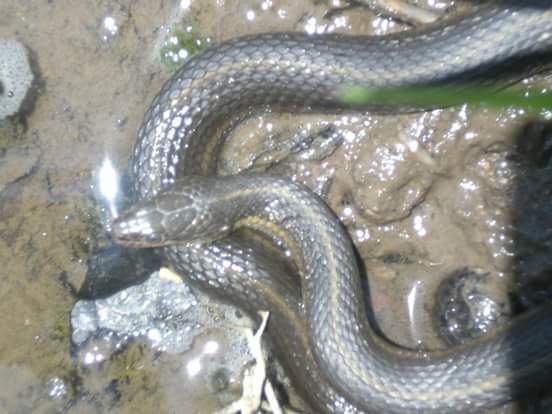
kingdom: Animalia
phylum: Chordata
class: Squamata
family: Colubridae
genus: Thamnophis
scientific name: Thamnophis melanogaster
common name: Blackbelly garter snake
